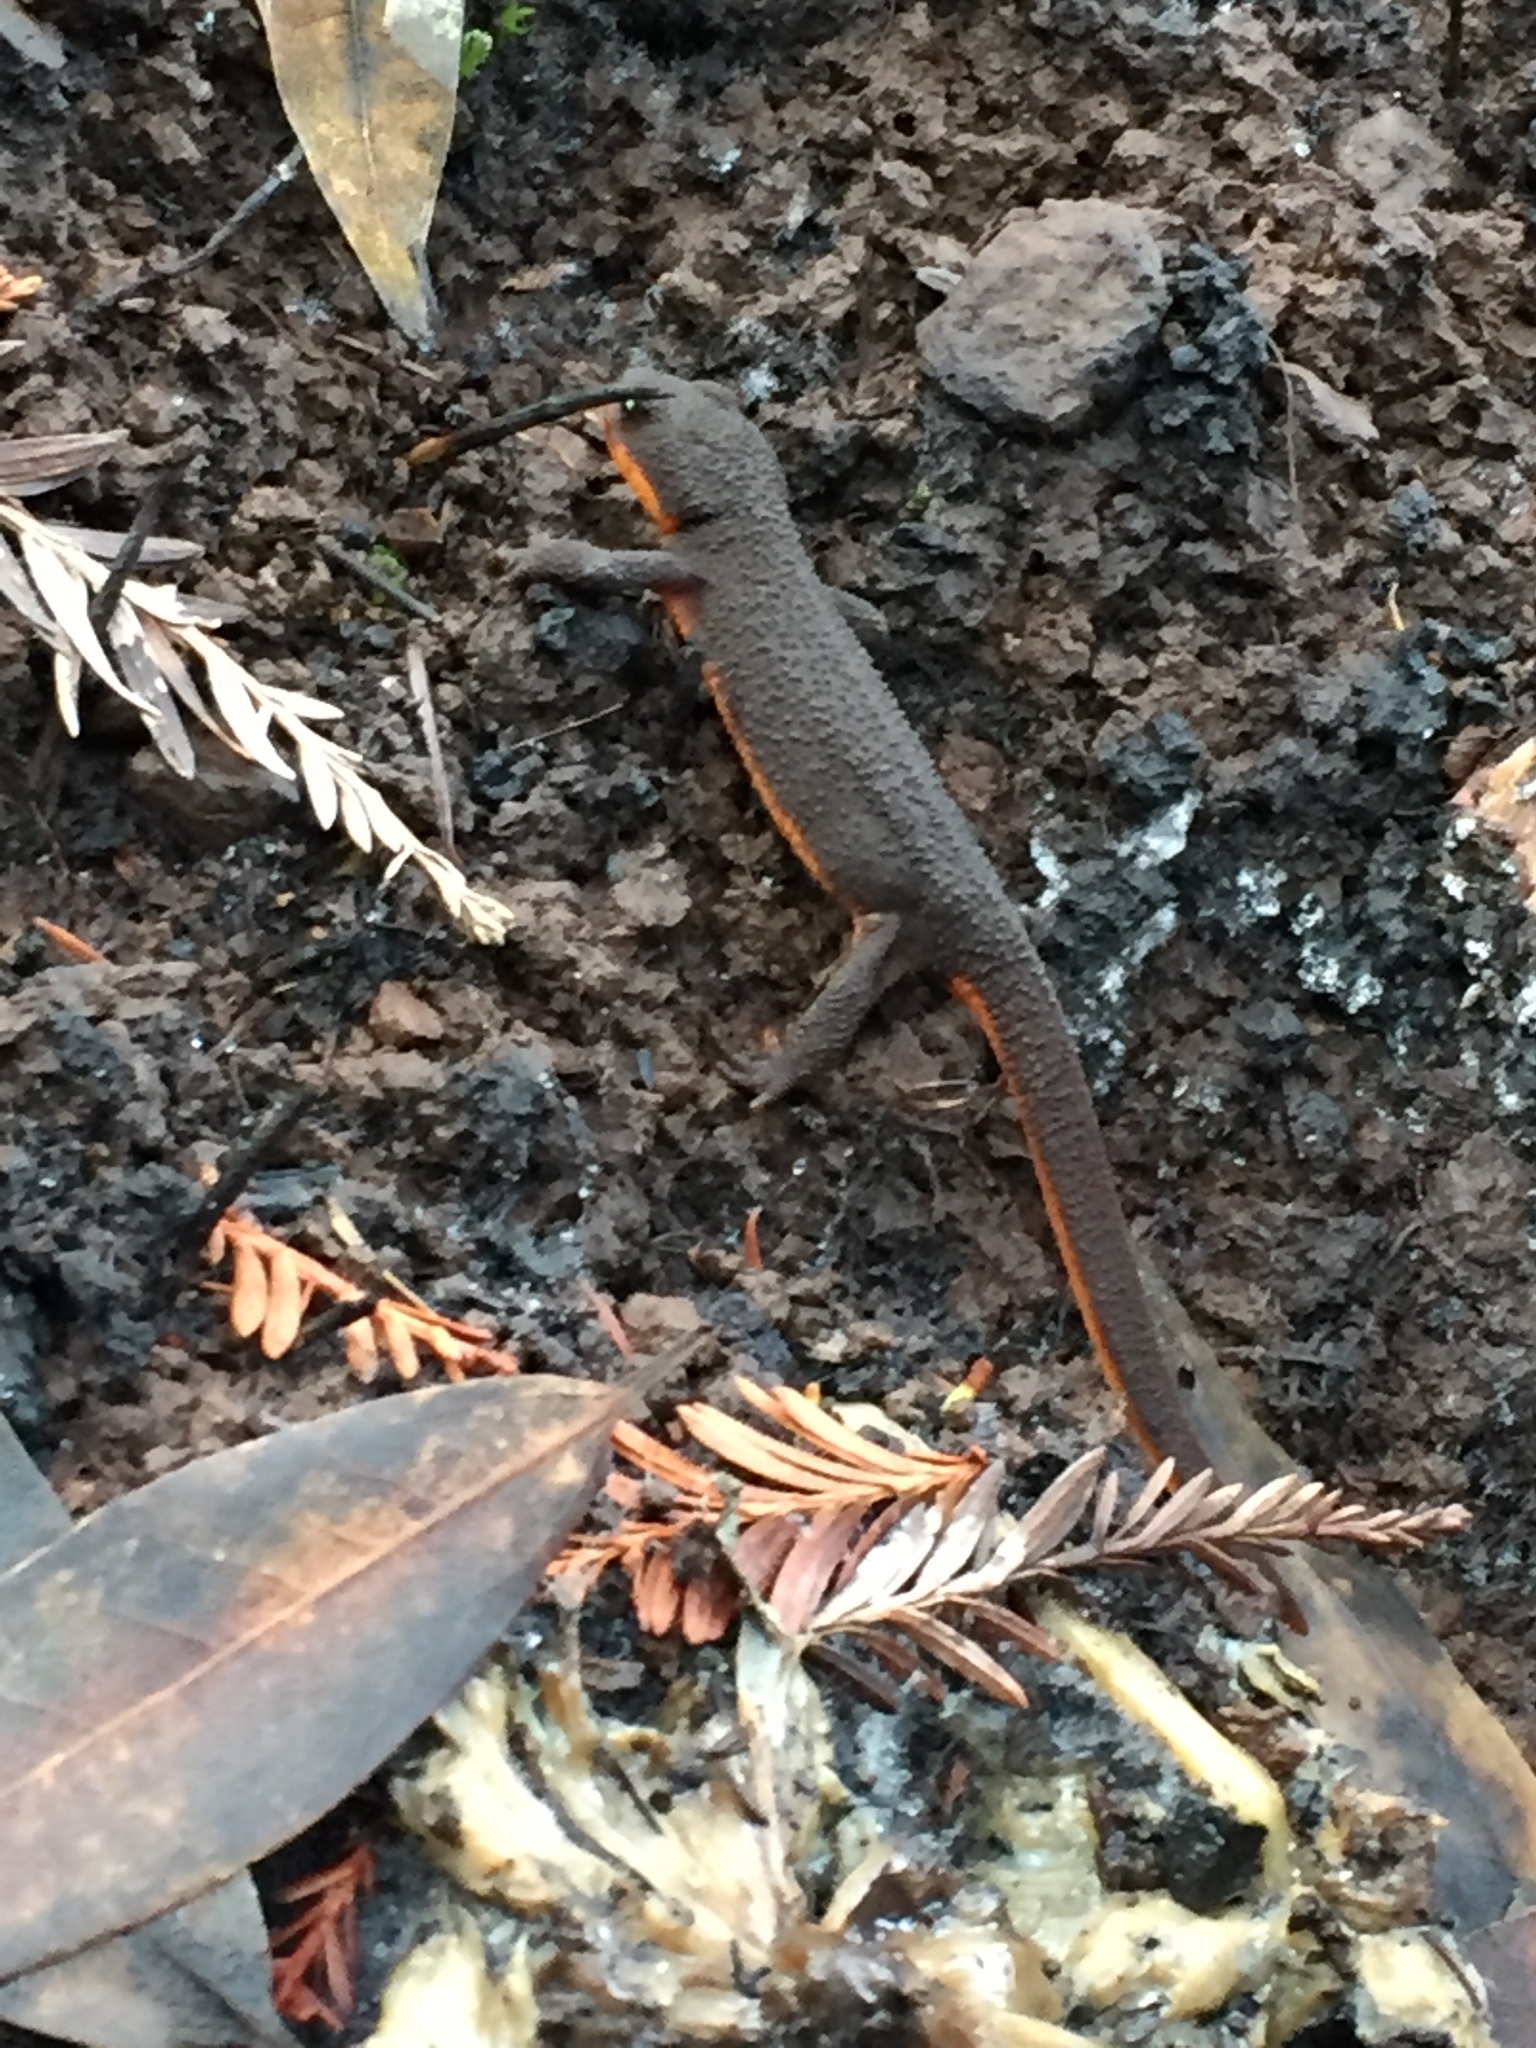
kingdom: Animalia
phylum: Chordata
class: Amphibia
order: Caudata
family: Salamandridae
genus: Taricha
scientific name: Taricha granulosa
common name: Roughskin newt
